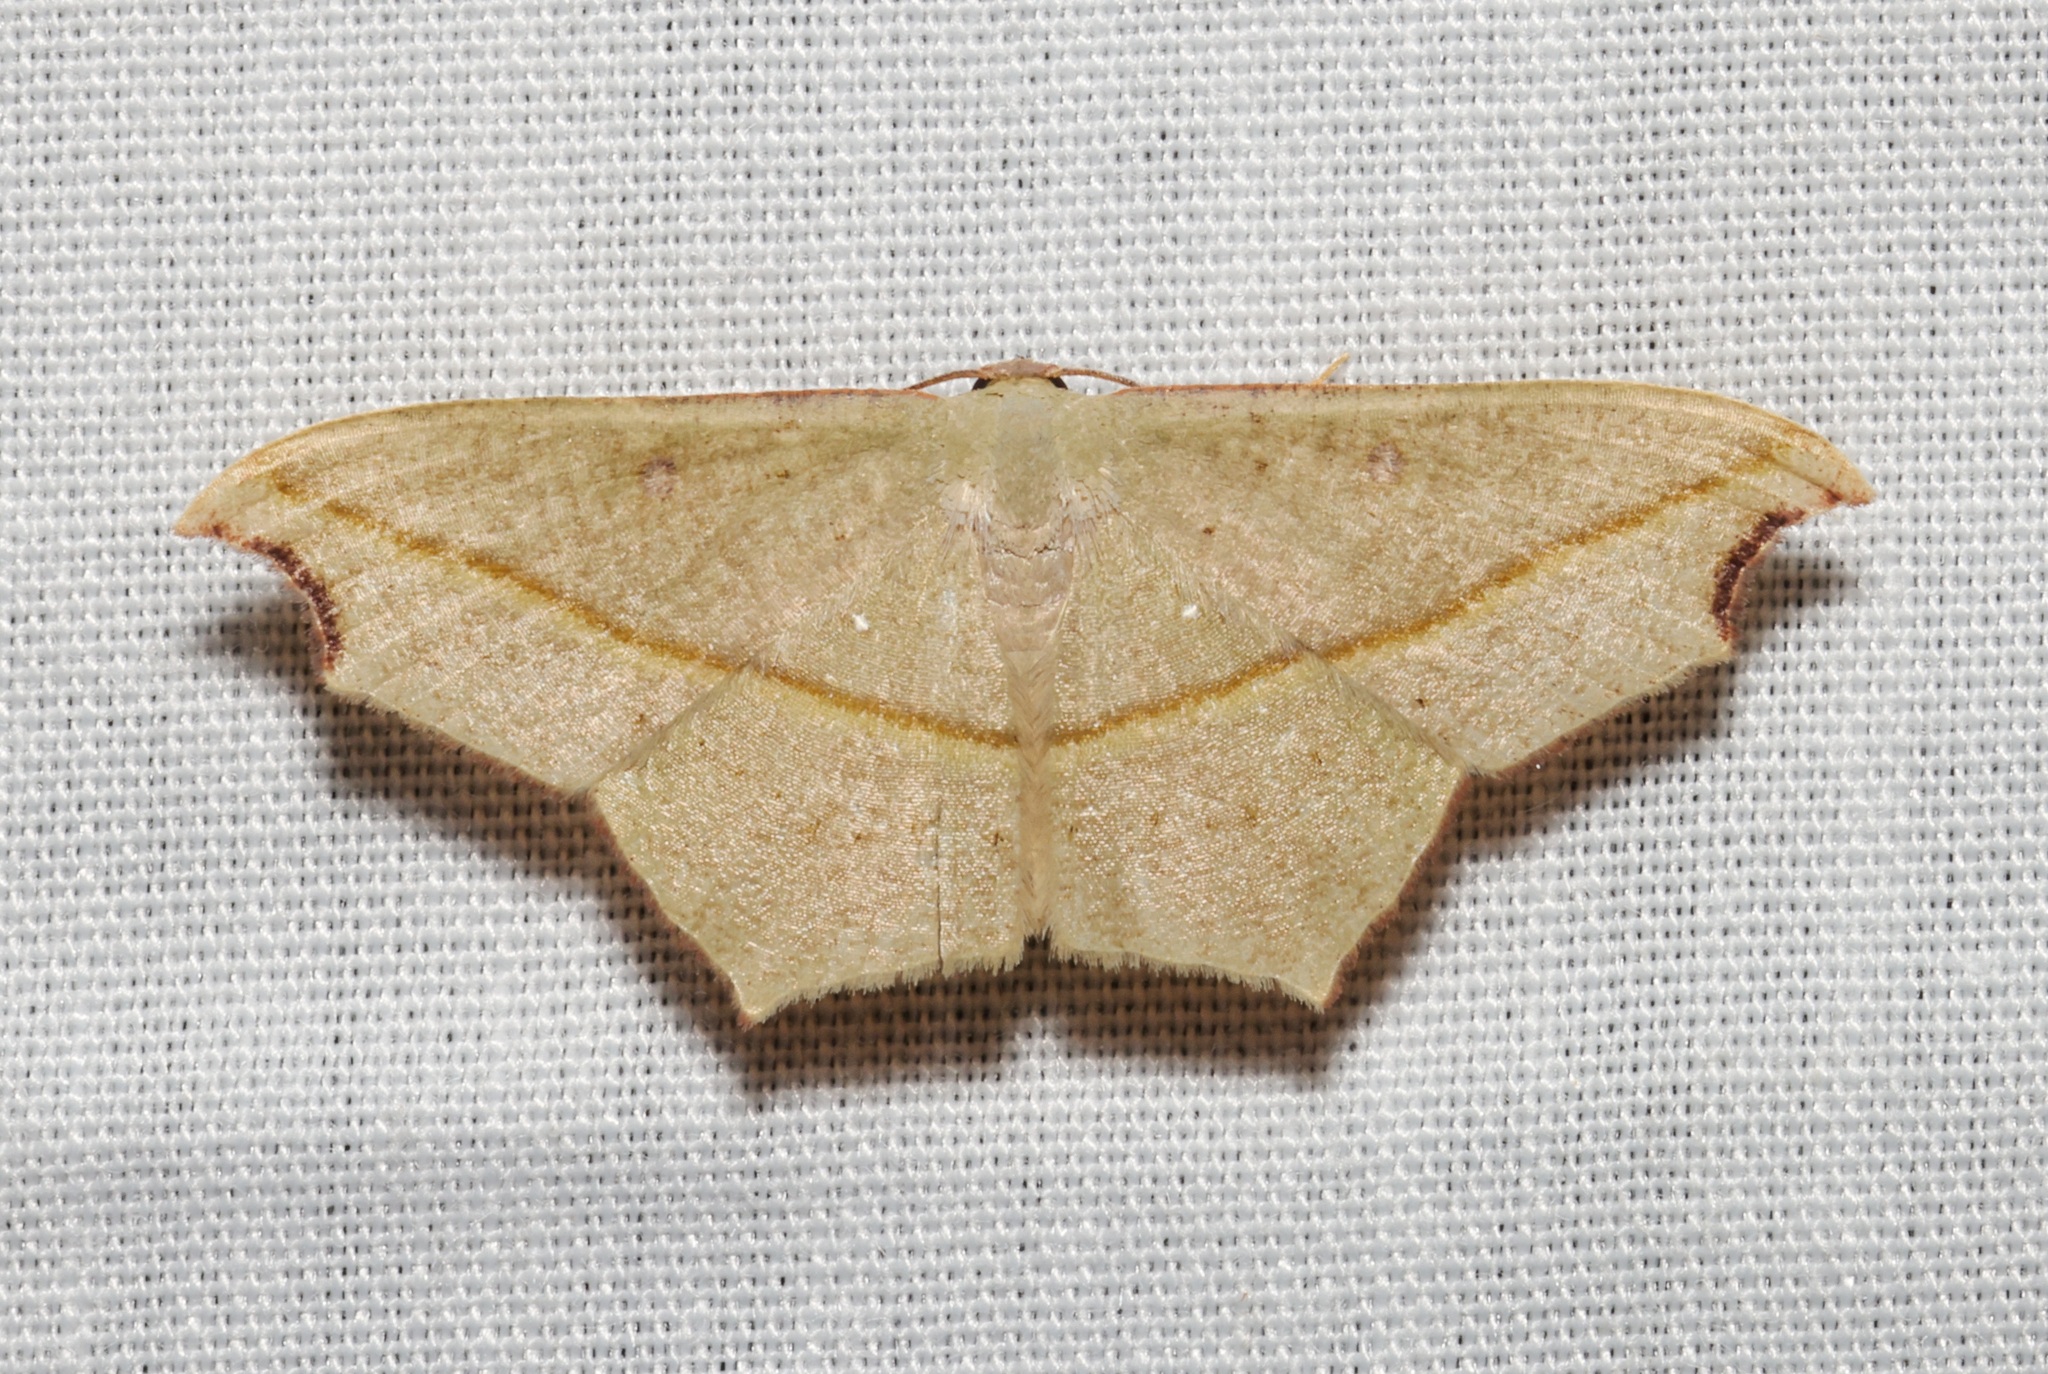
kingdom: Animalia
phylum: Arthropoda
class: Insecta
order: Lepidoptera
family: Geometridae
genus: Traminda
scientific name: Traminda aventiaria
